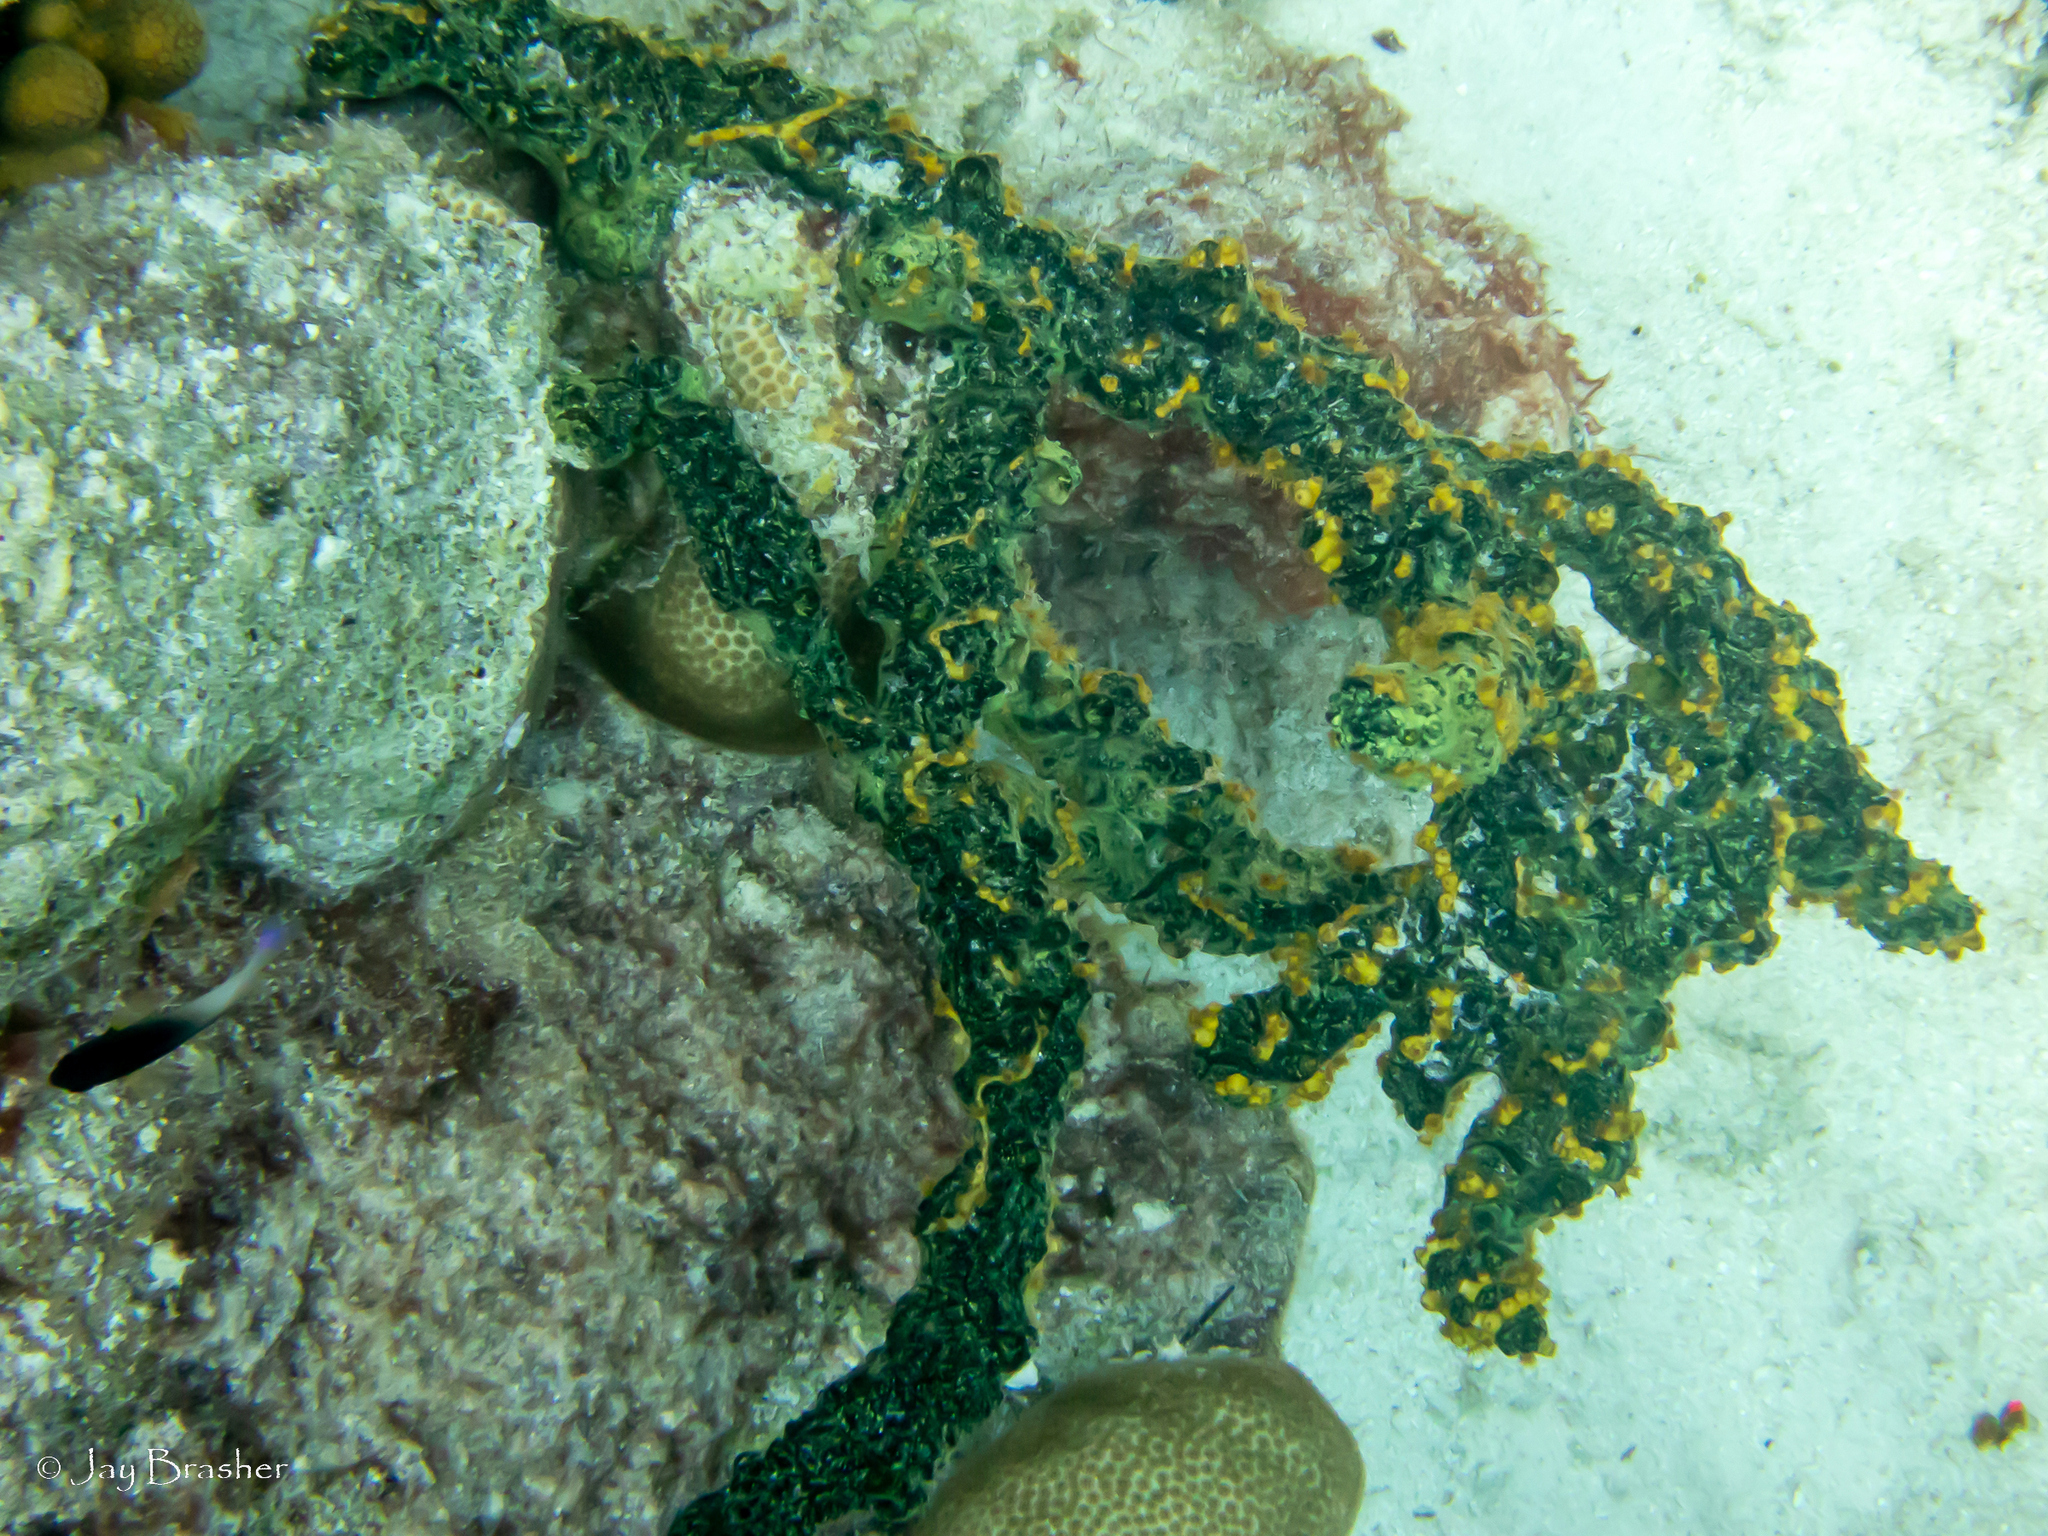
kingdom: Animalia
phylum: Porifera
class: Demospongiae
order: Poecilosclerida
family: Iotrochotidae
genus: Iotrochota
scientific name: Iotrochota birotulata
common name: Purple bleeding sponge
